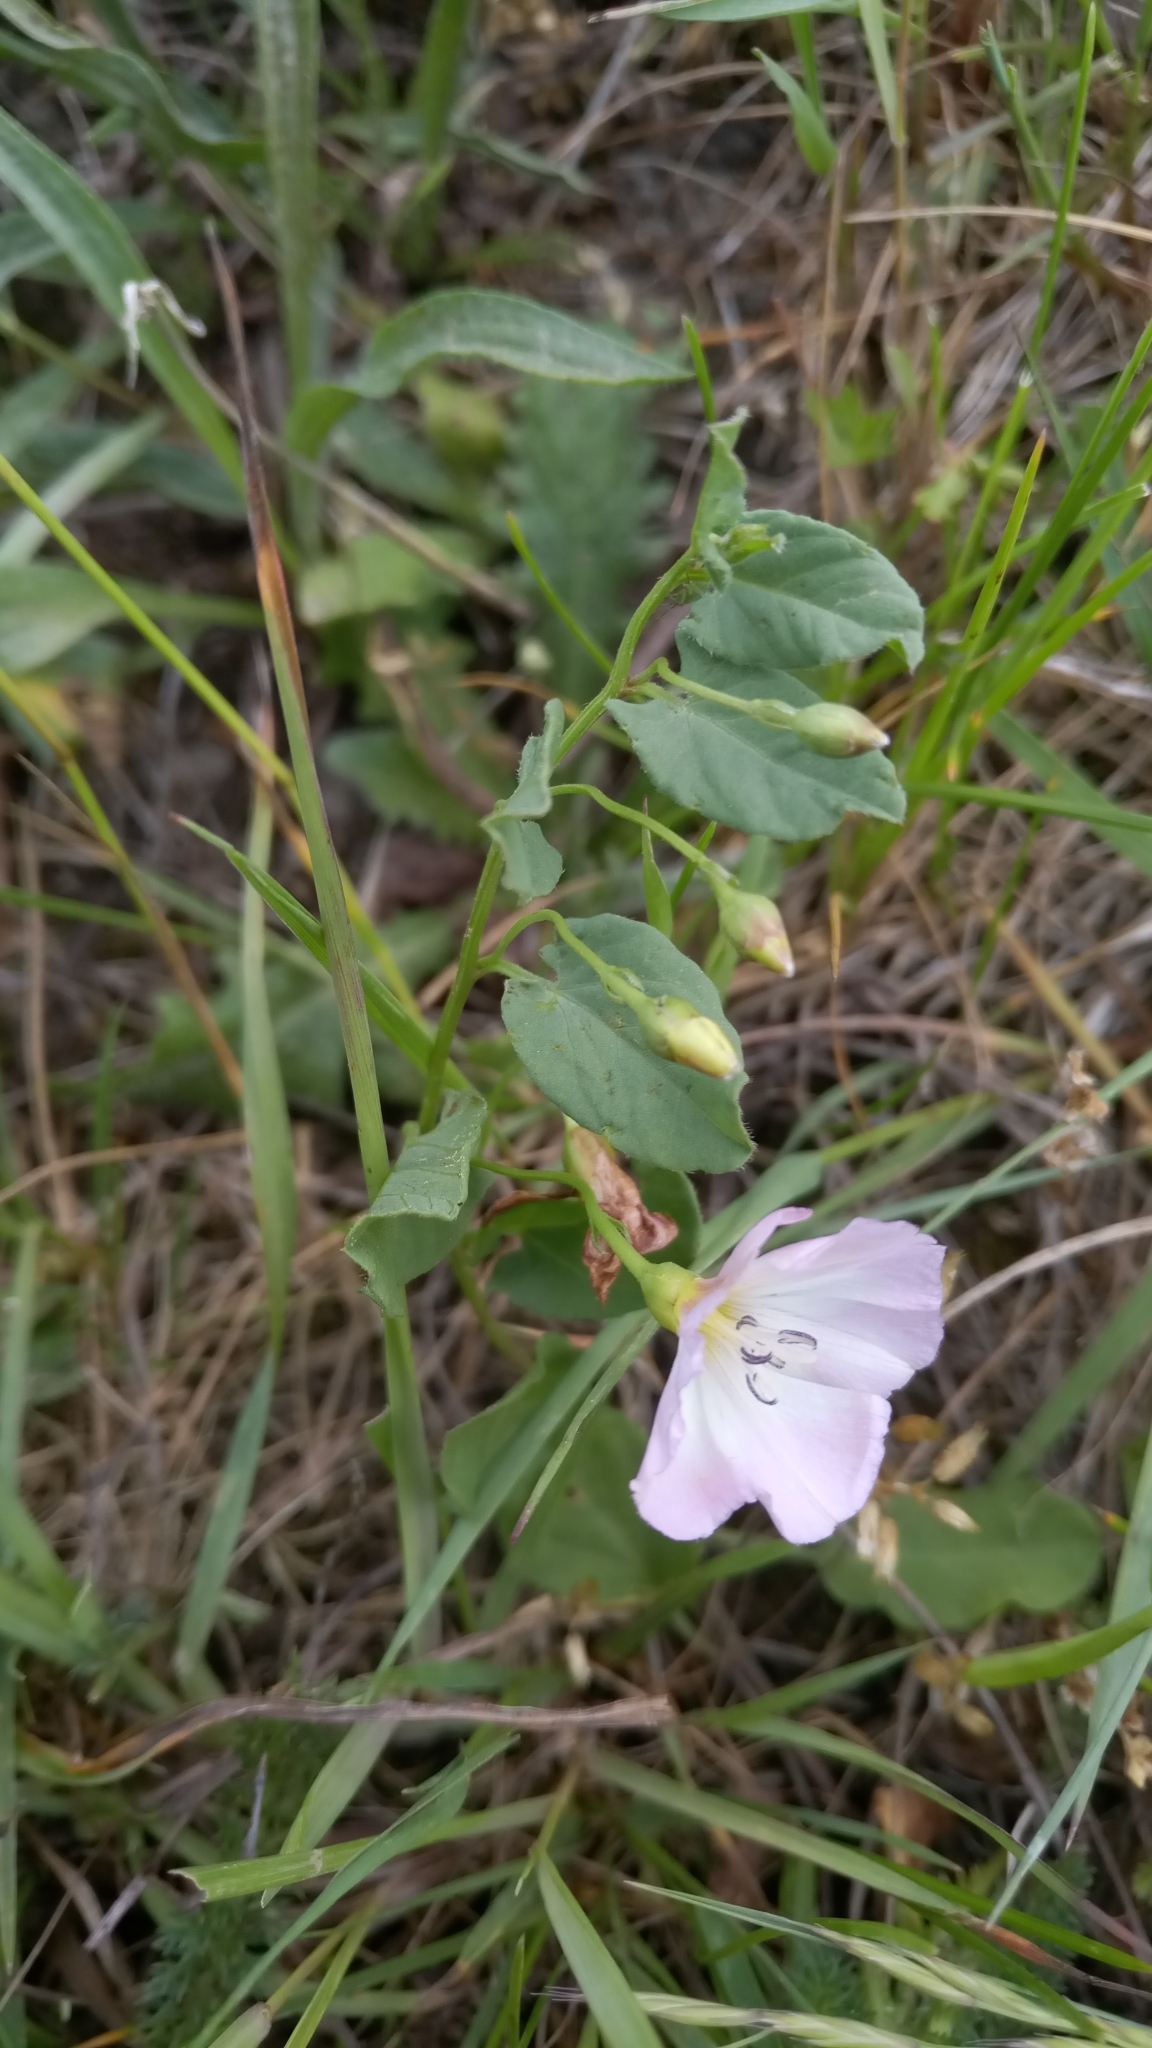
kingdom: Plantae
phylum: Tracheophyta
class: Magnoliopsida
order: Solanales
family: Convolvulaceae
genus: Convolvulus
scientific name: Convolvulus arvensis
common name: Field bindweed
